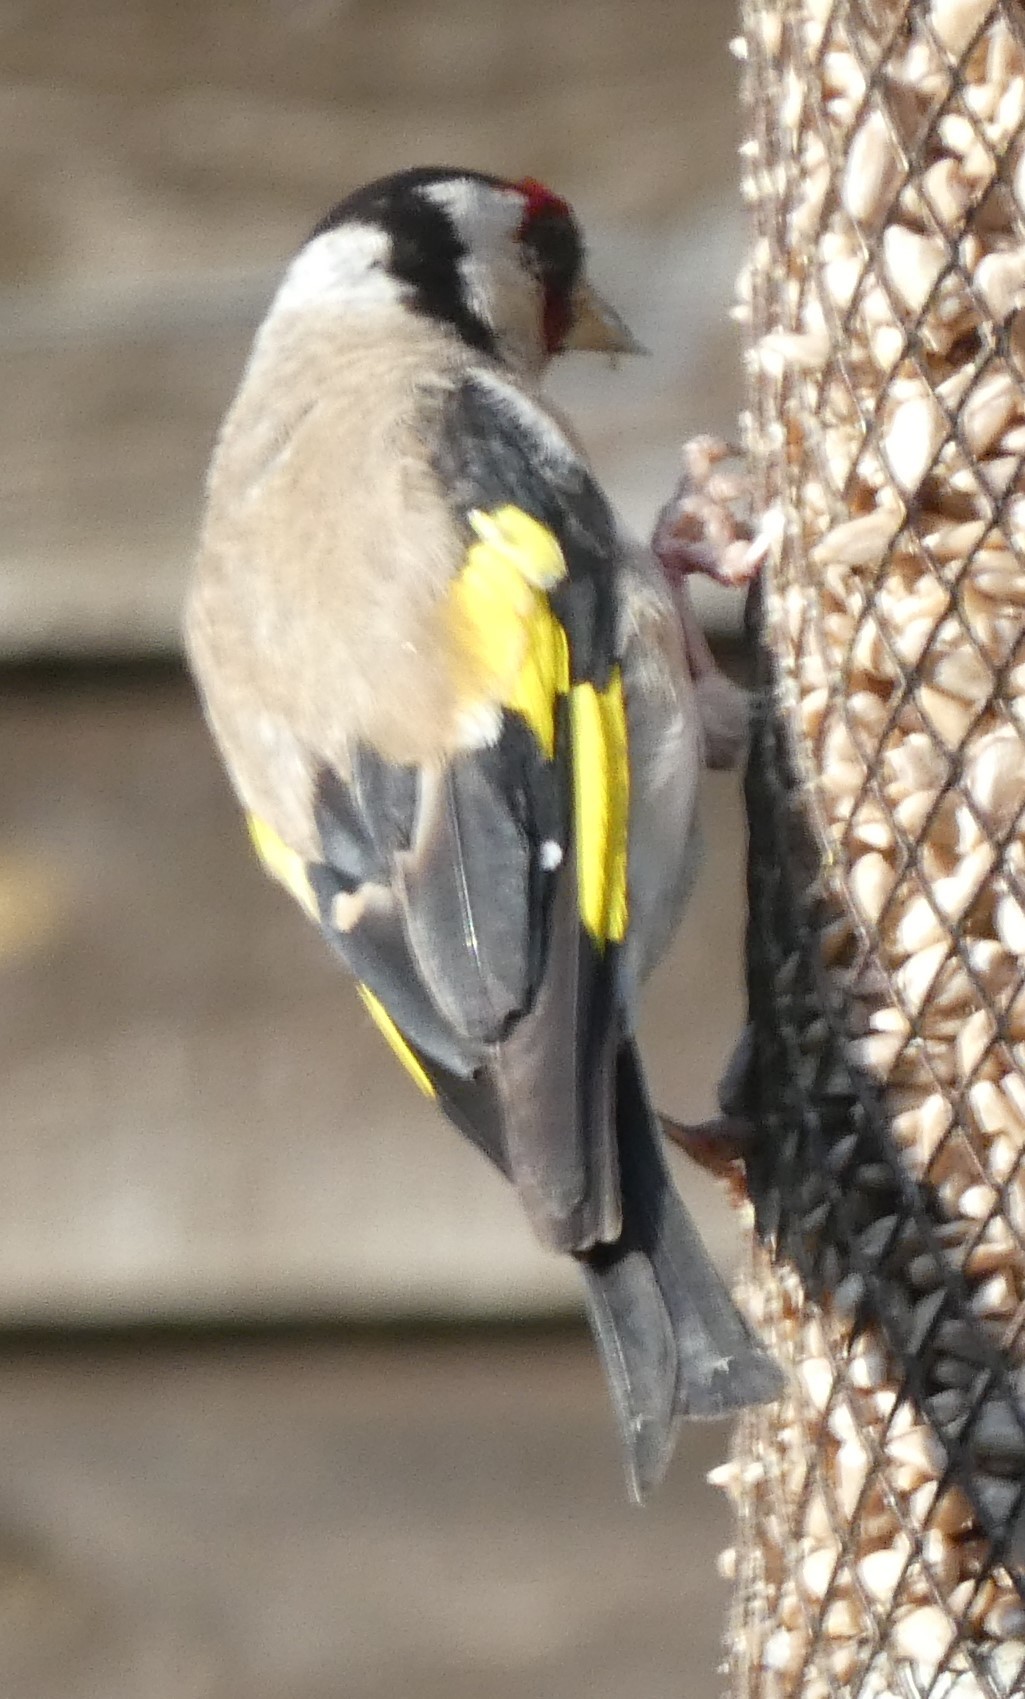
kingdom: Animalia
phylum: Chordata
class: Aves
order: Passeriformes
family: Fringillidae
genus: Carduelis
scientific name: Carduelis carduelis
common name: European goldfinch
